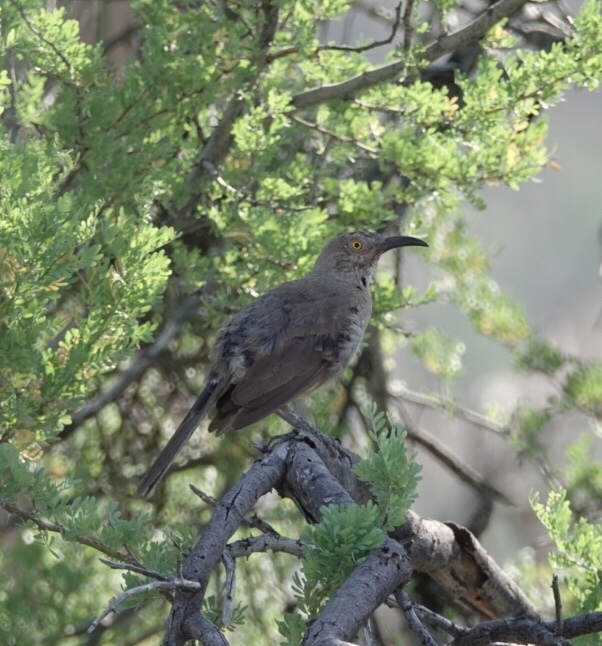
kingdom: Animalia
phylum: Chordata
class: Aves
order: Passeriformes
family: Mimidae
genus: Toxostoma
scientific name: Toxostoma curvirostre
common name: Curve-billed thrasher
